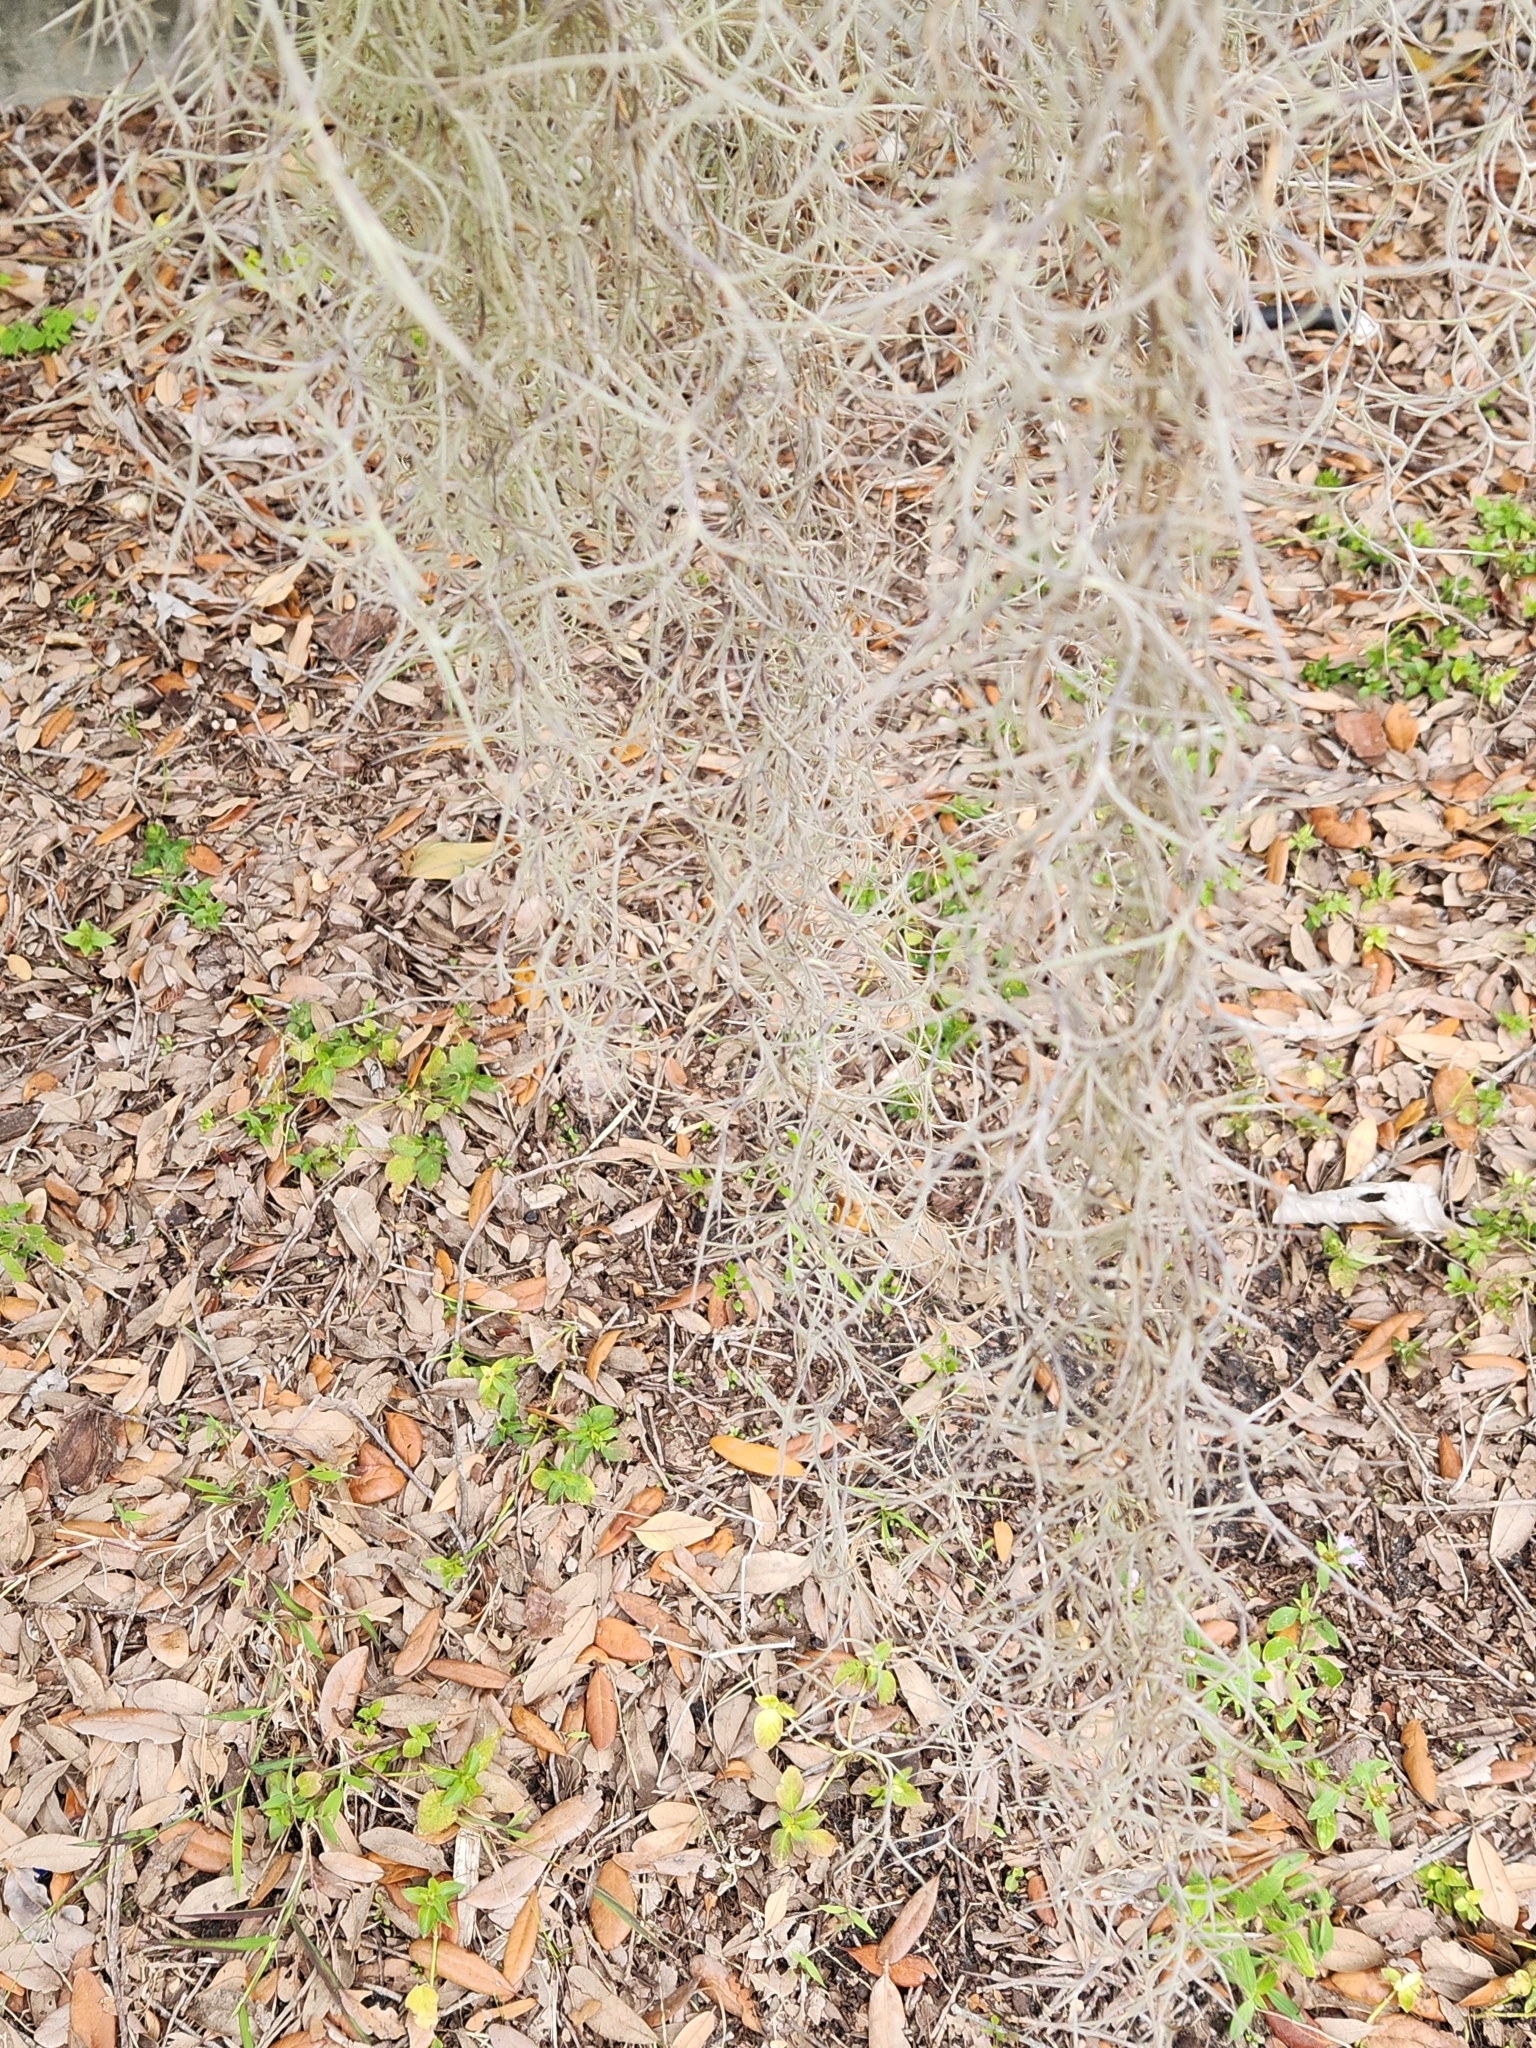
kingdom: Plantae
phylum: Tracheophyta
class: Liliopsida
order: Poales
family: Bromeliaceae
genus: Tillandsia
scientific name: Tillandsia usneoides
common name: Spanish moss
